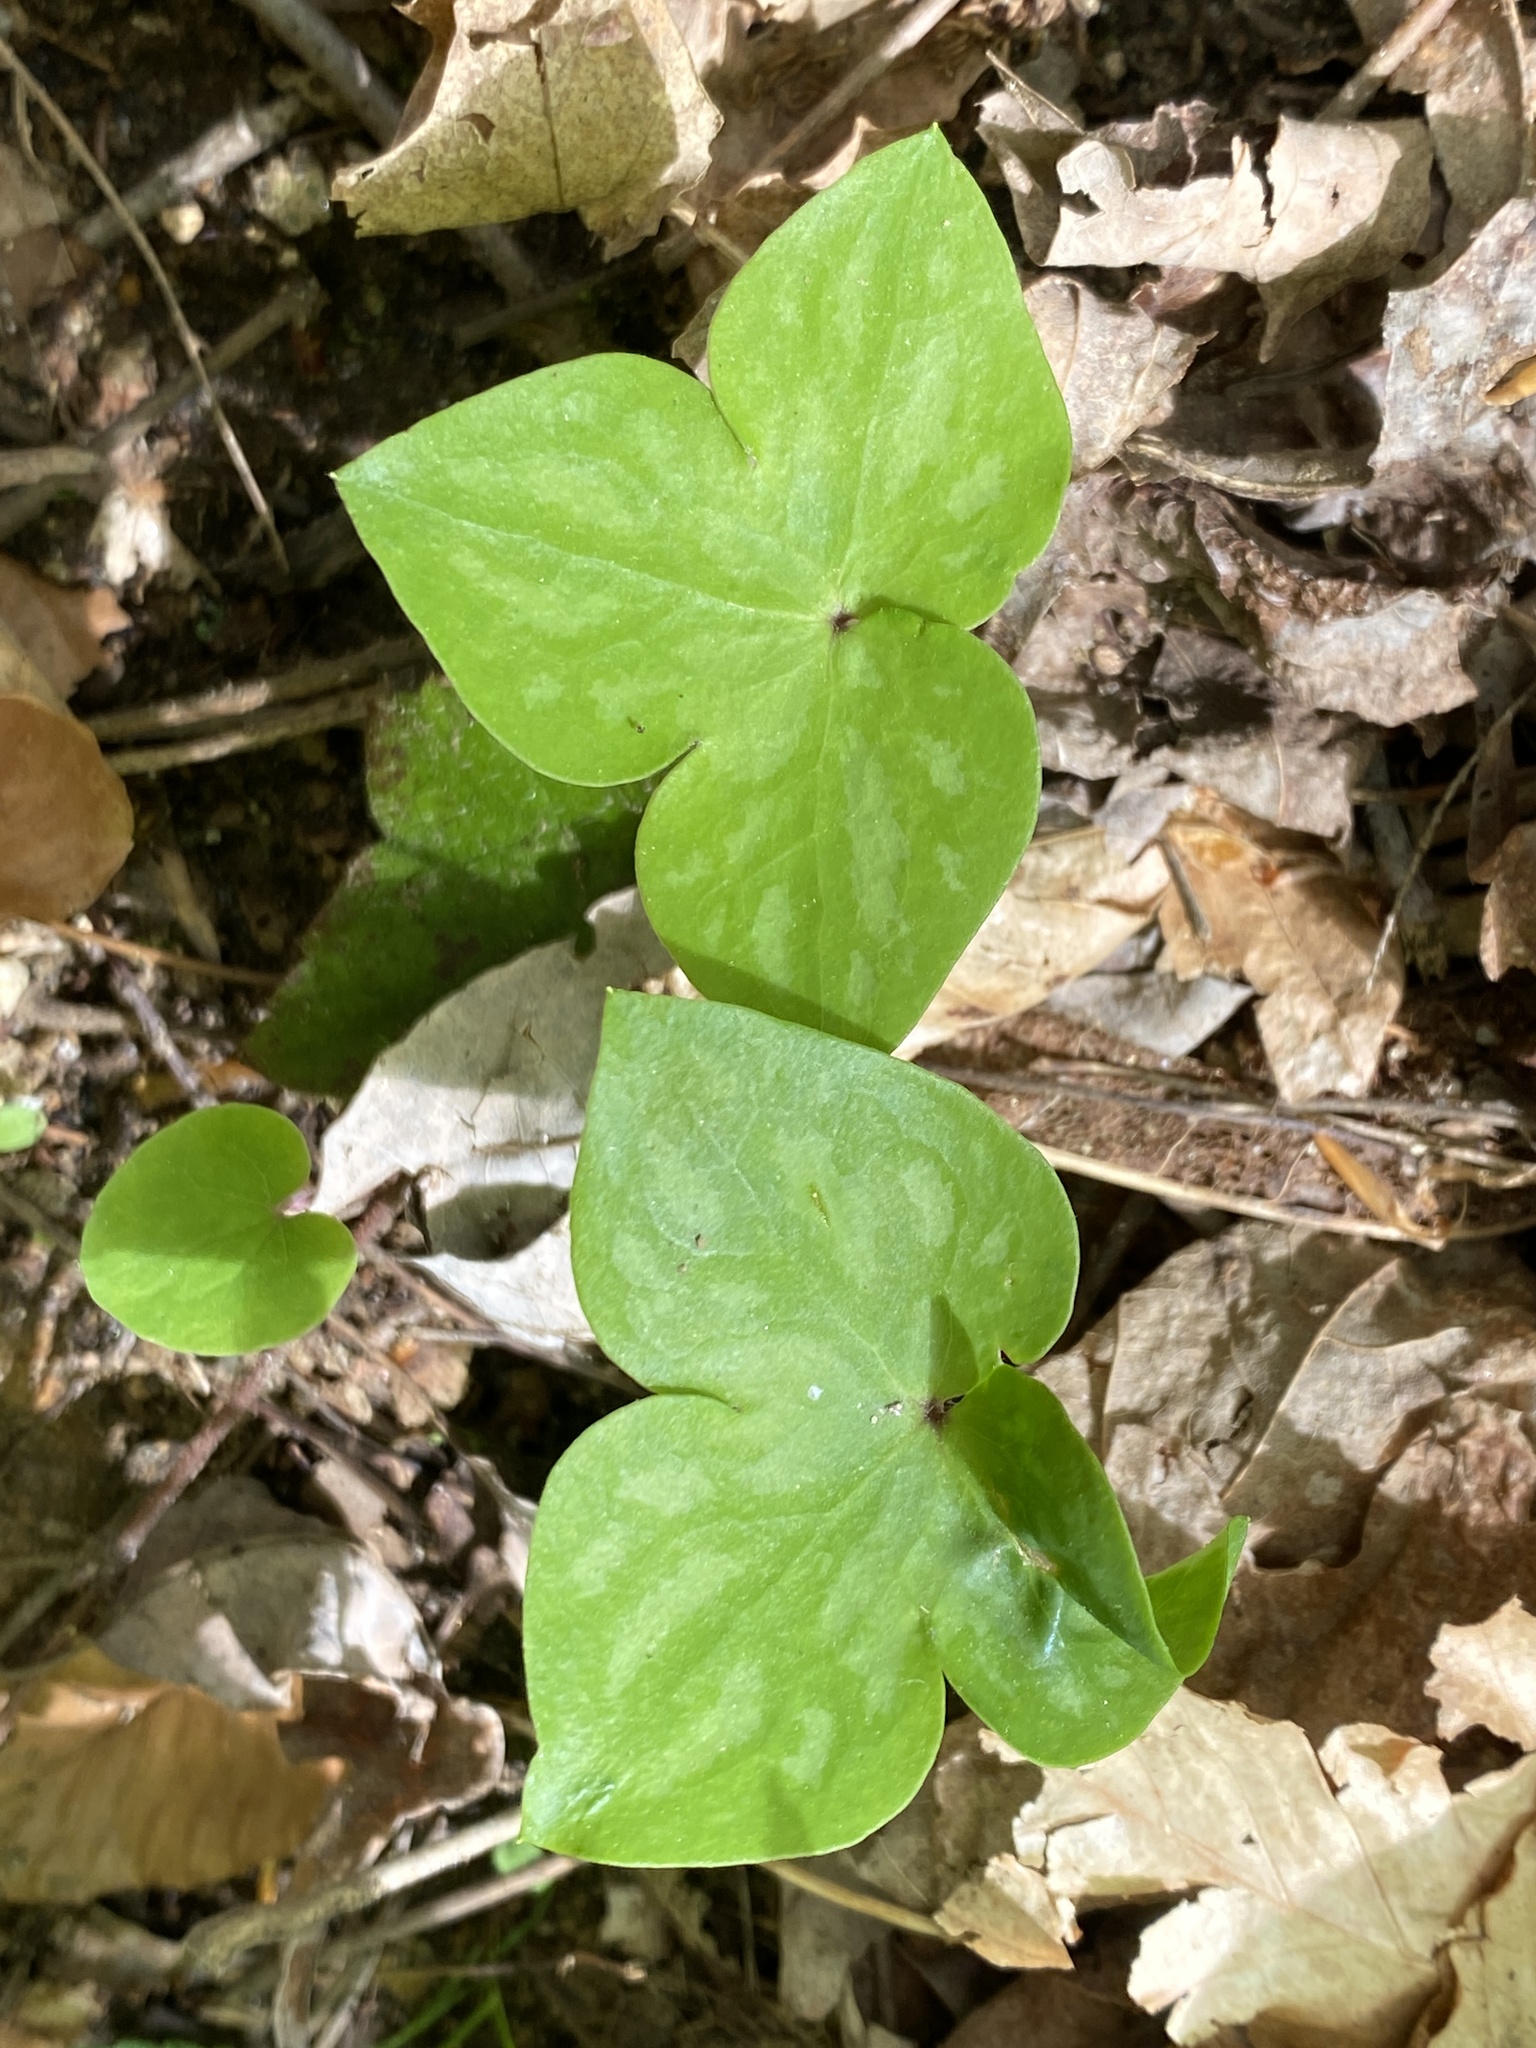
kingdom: Plantae
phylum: Tracheophyta
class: Magnoliopsida
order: Ranunculales
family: Ranunculaceae
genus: Hepatica
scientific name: Hepatica acutiloba
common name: Sharp-lobed hepatica
